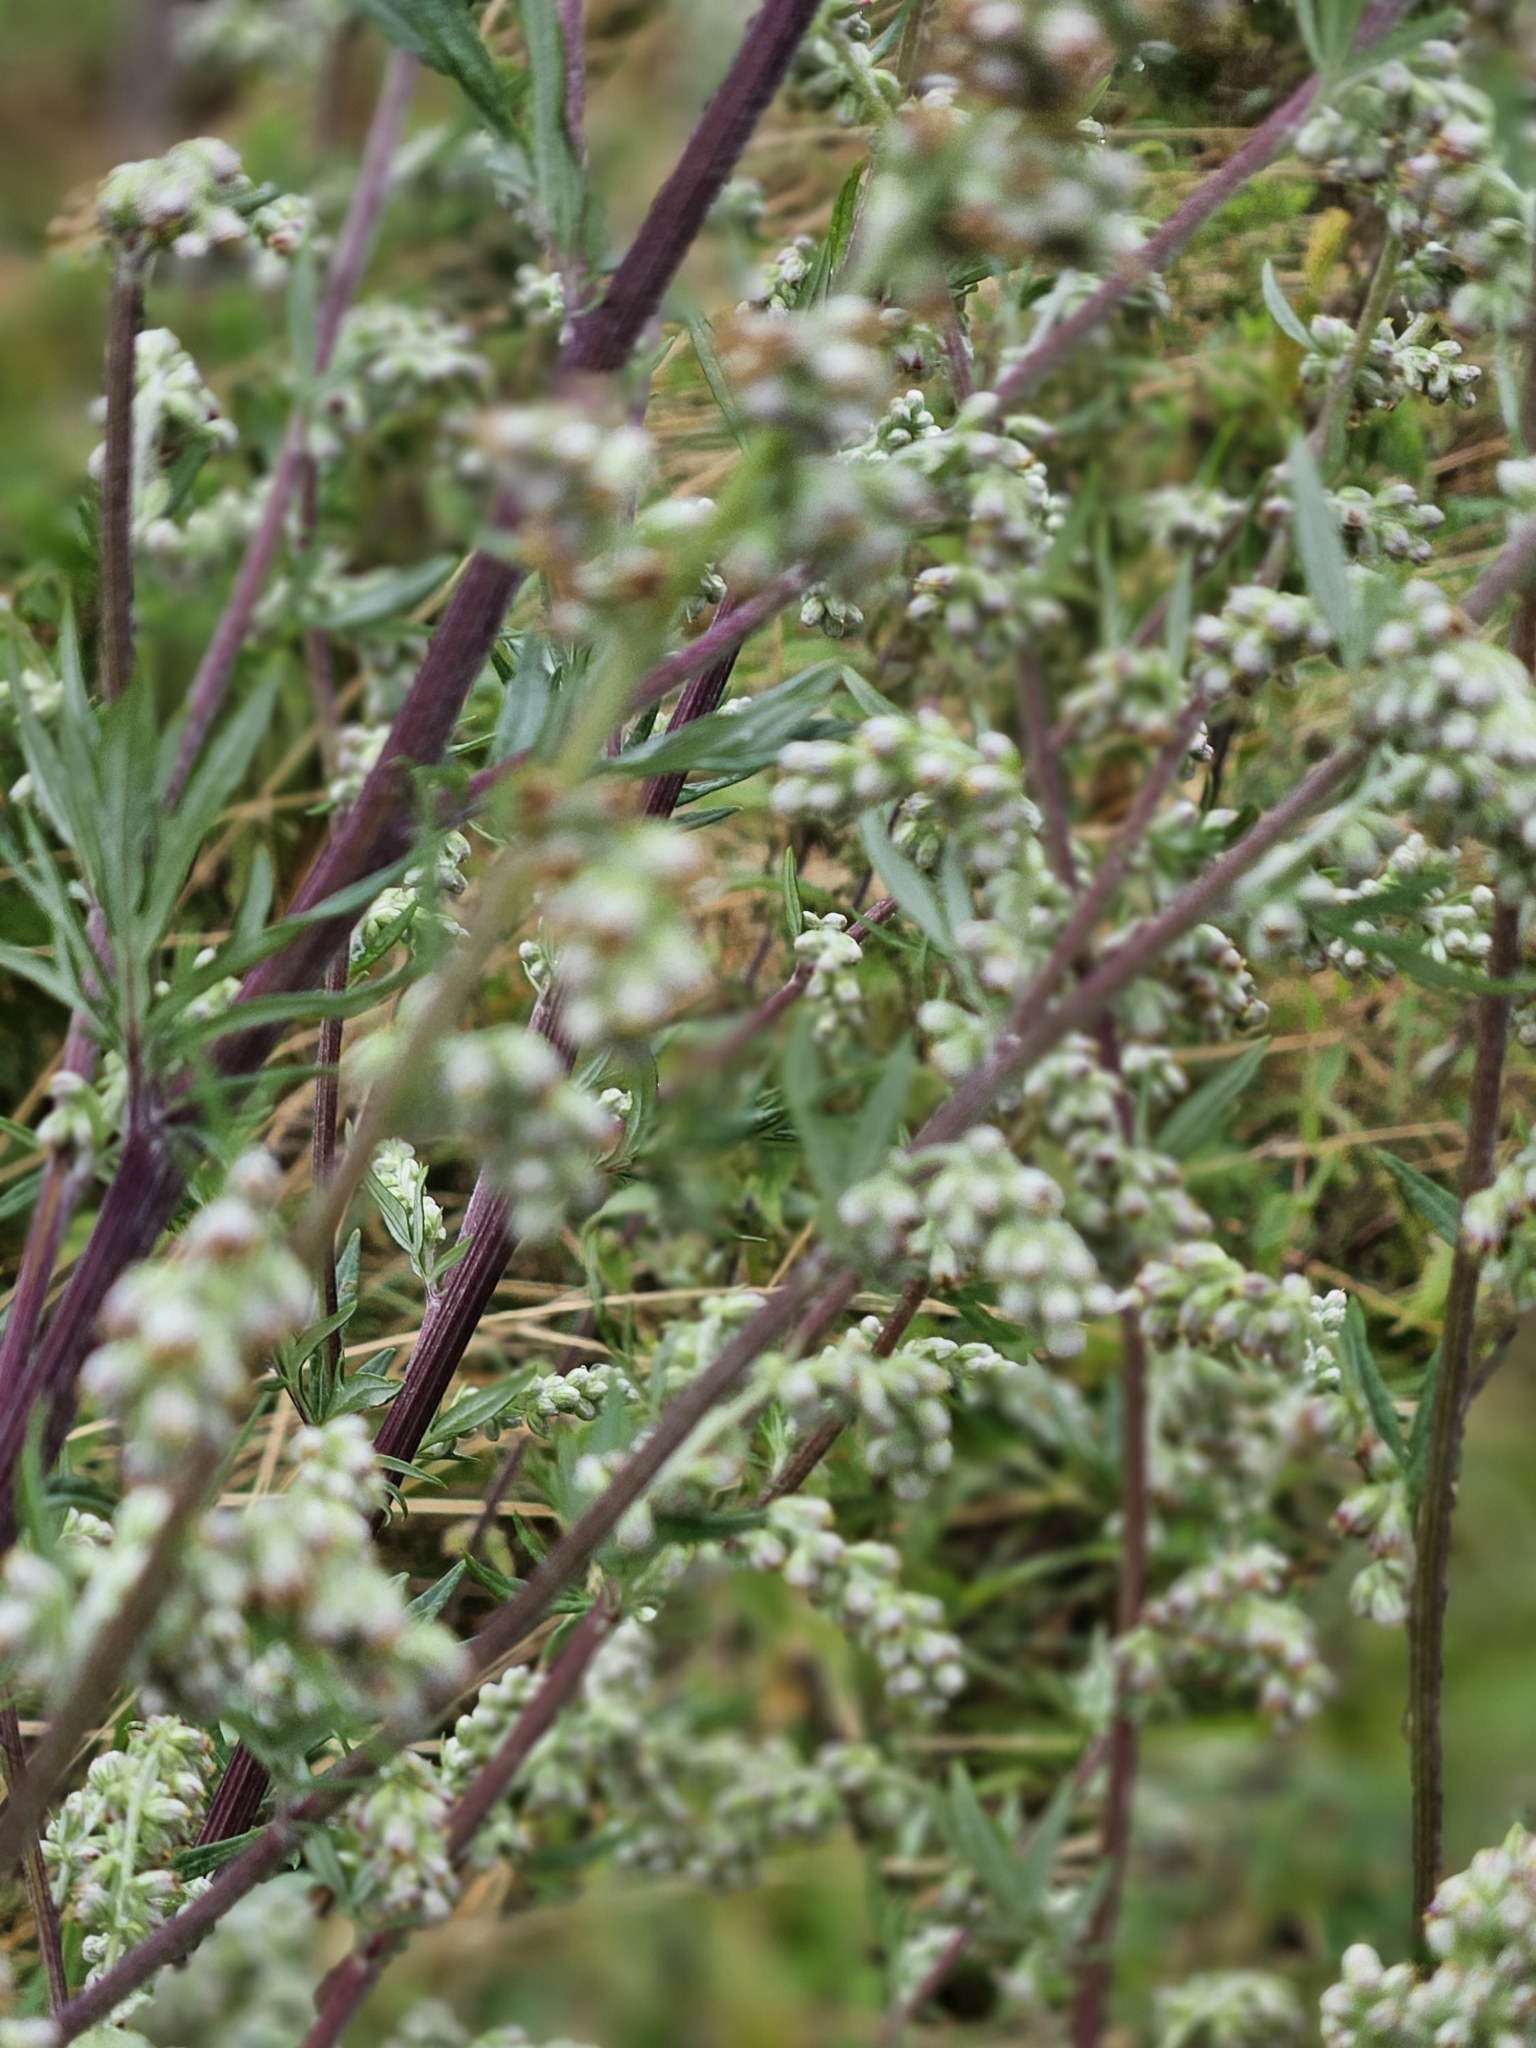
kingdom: Plantae
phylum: Tracheophyta
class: Magnoliopsida
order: Asterales
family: Asteraceae
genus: Artemisia
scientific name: Artemisia vulgaris
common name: Mugwort
